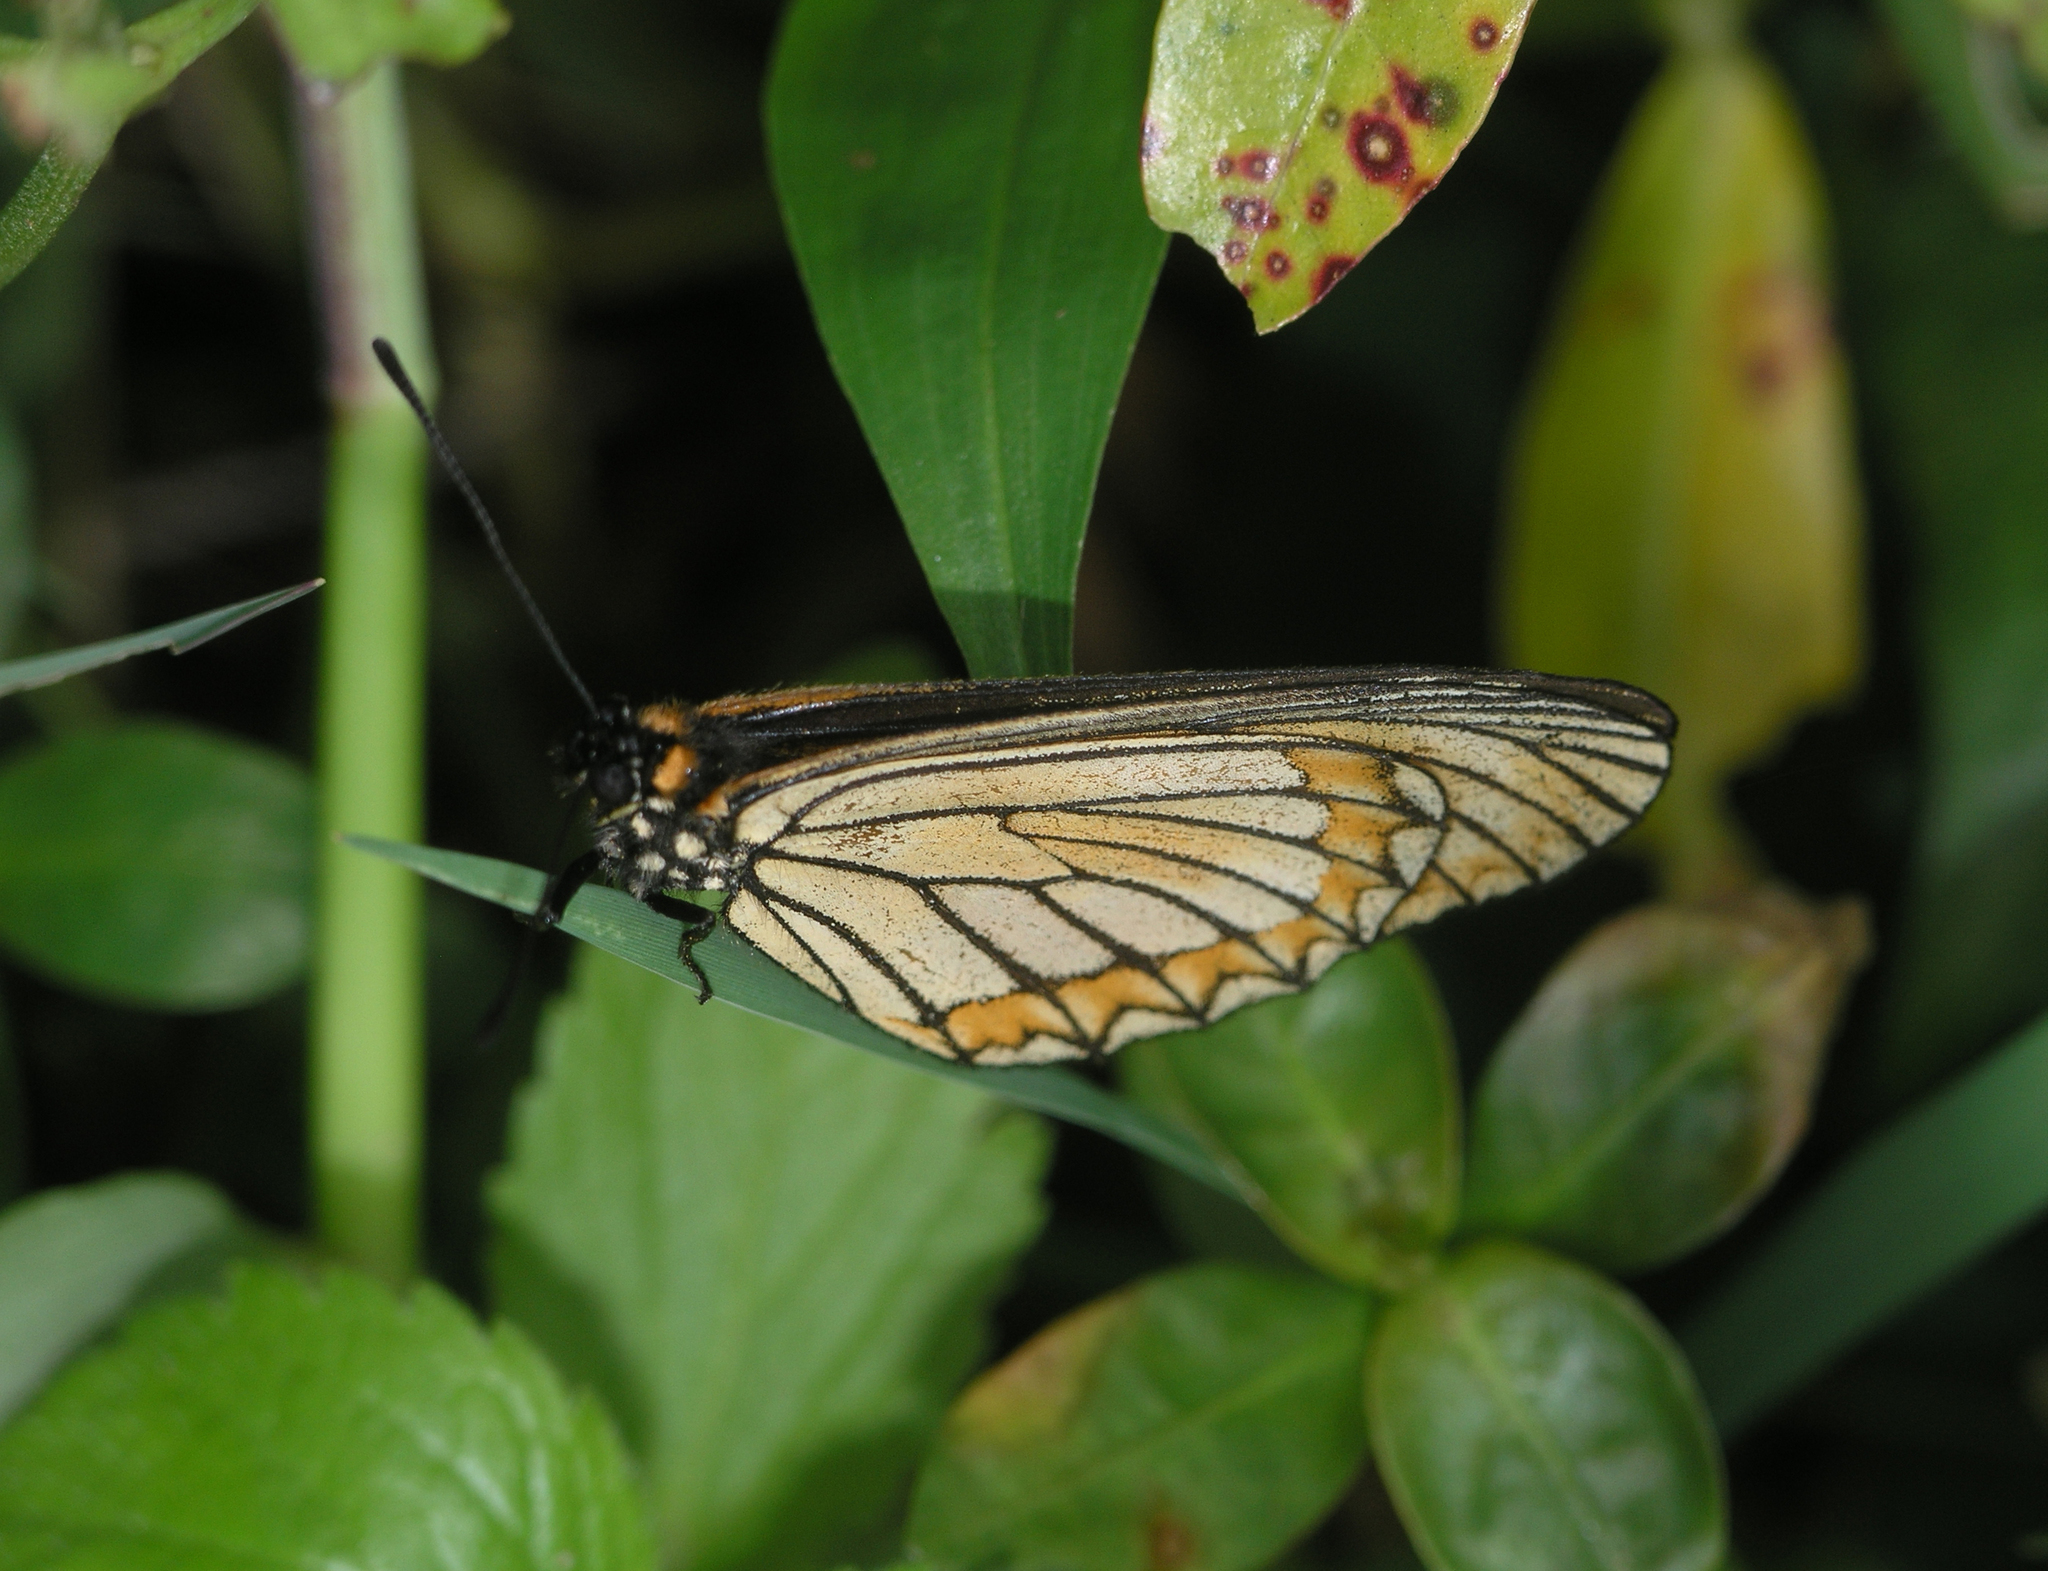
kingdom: Animalia
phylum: Arthropoda
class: Insecta
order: Lepidoptera
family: Nymphalidae
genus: Acraea
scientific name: Acraea Telchinia issoria
